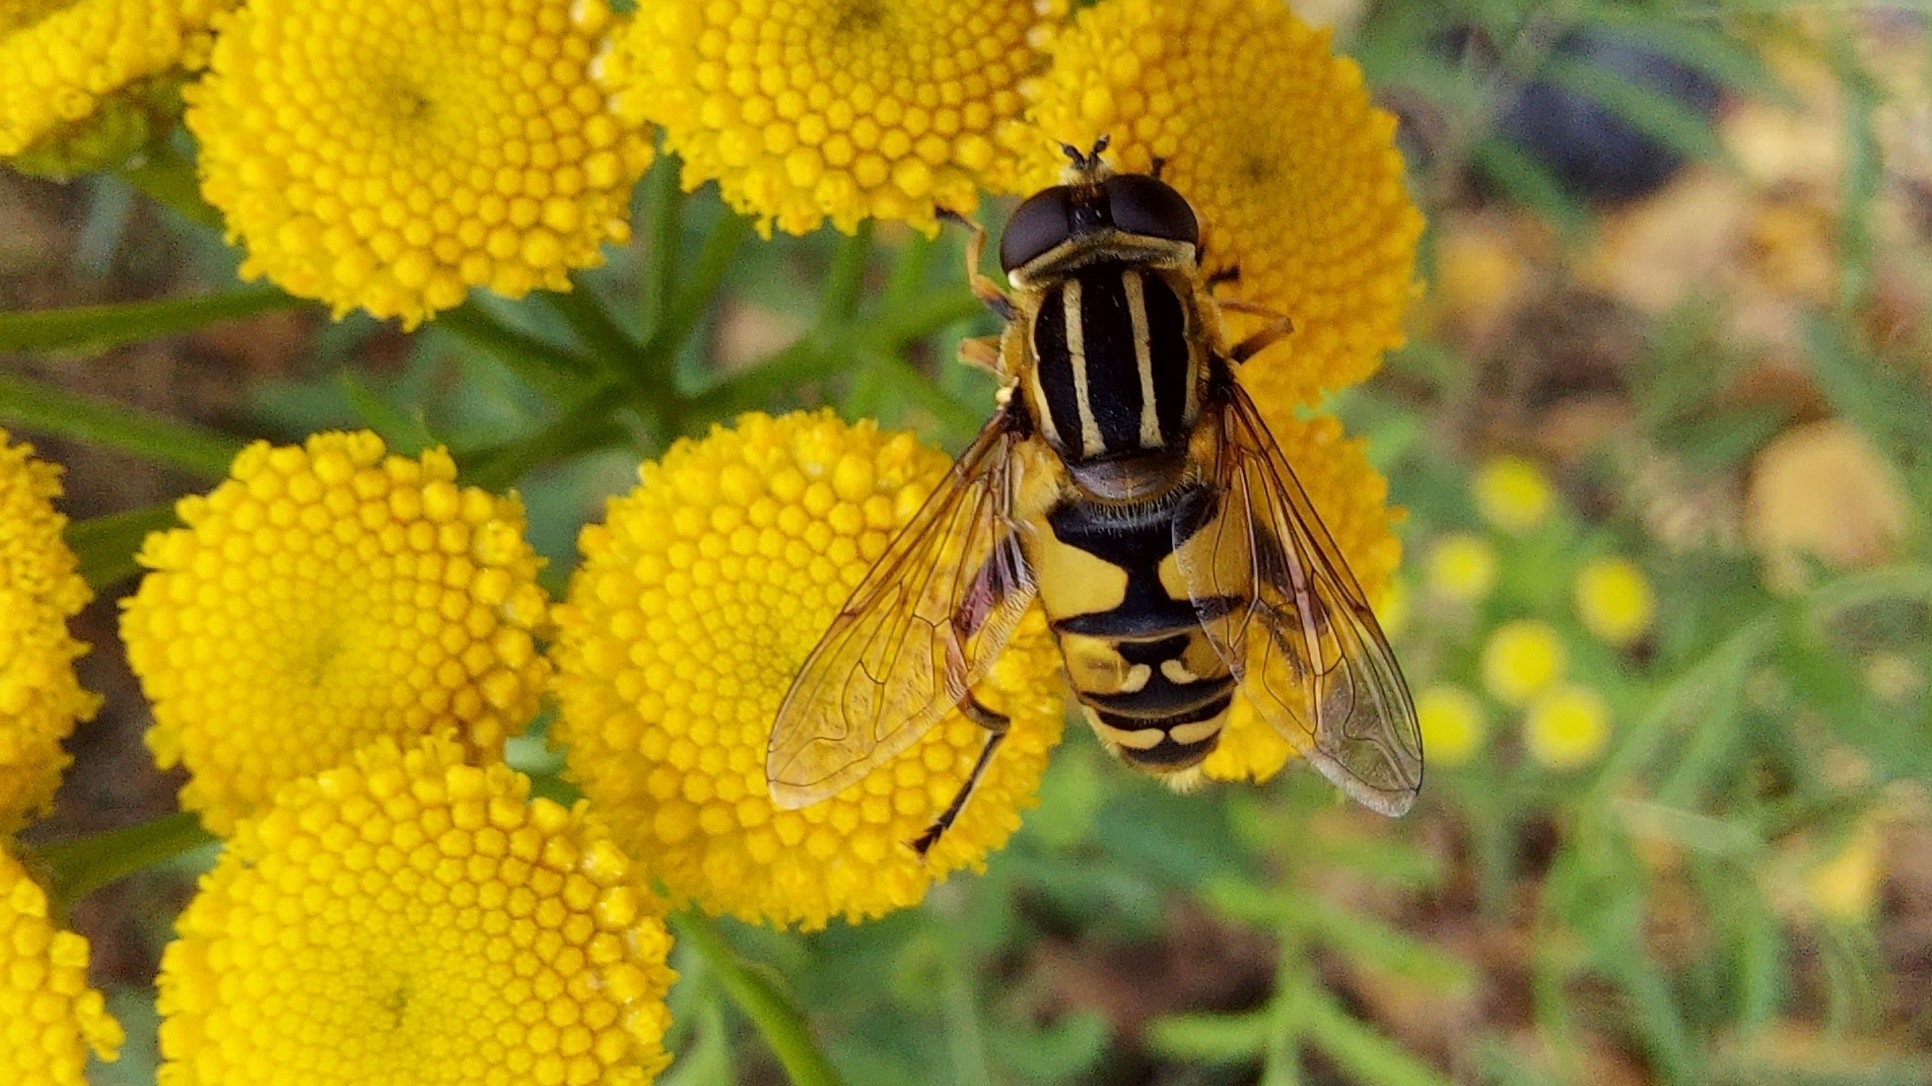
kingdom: Animalia
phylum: Arthropoda
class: Insecta
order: Diptera
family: Syrphidae
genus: Helophilus
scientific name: Helophilus pendulus
